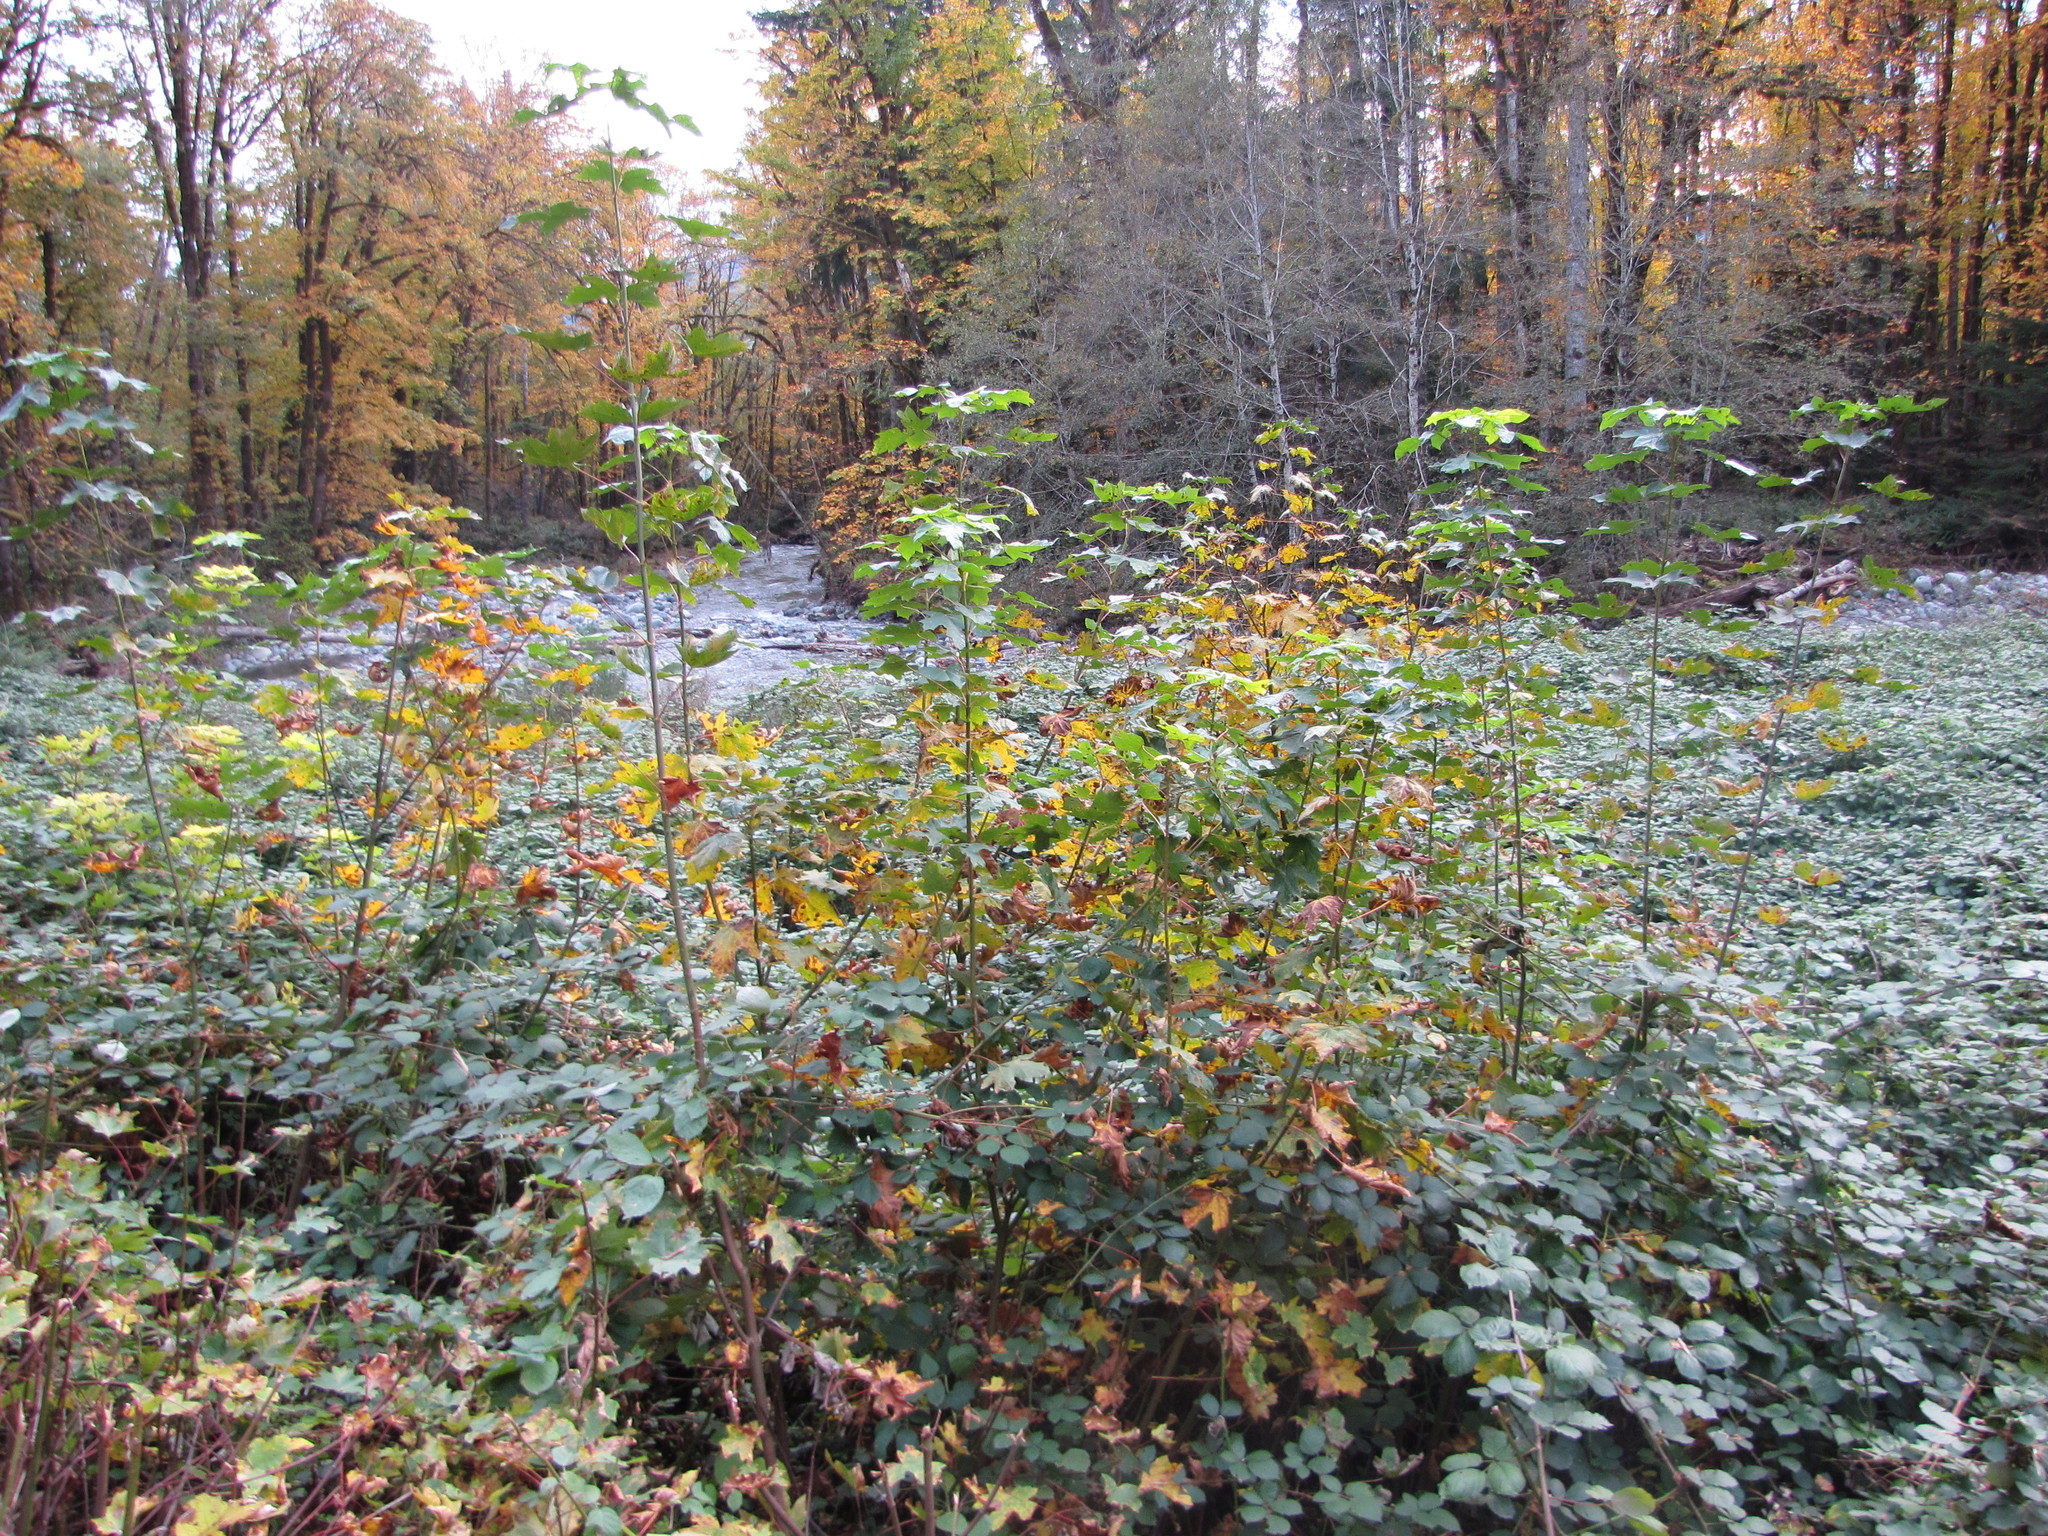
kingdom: Plantae
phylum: Tracheophyta
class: Magnoliopsida
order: Sapindales
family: Sapindaceae
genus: Acer
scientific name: Acer glabrum
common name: Rocky mountain maple
